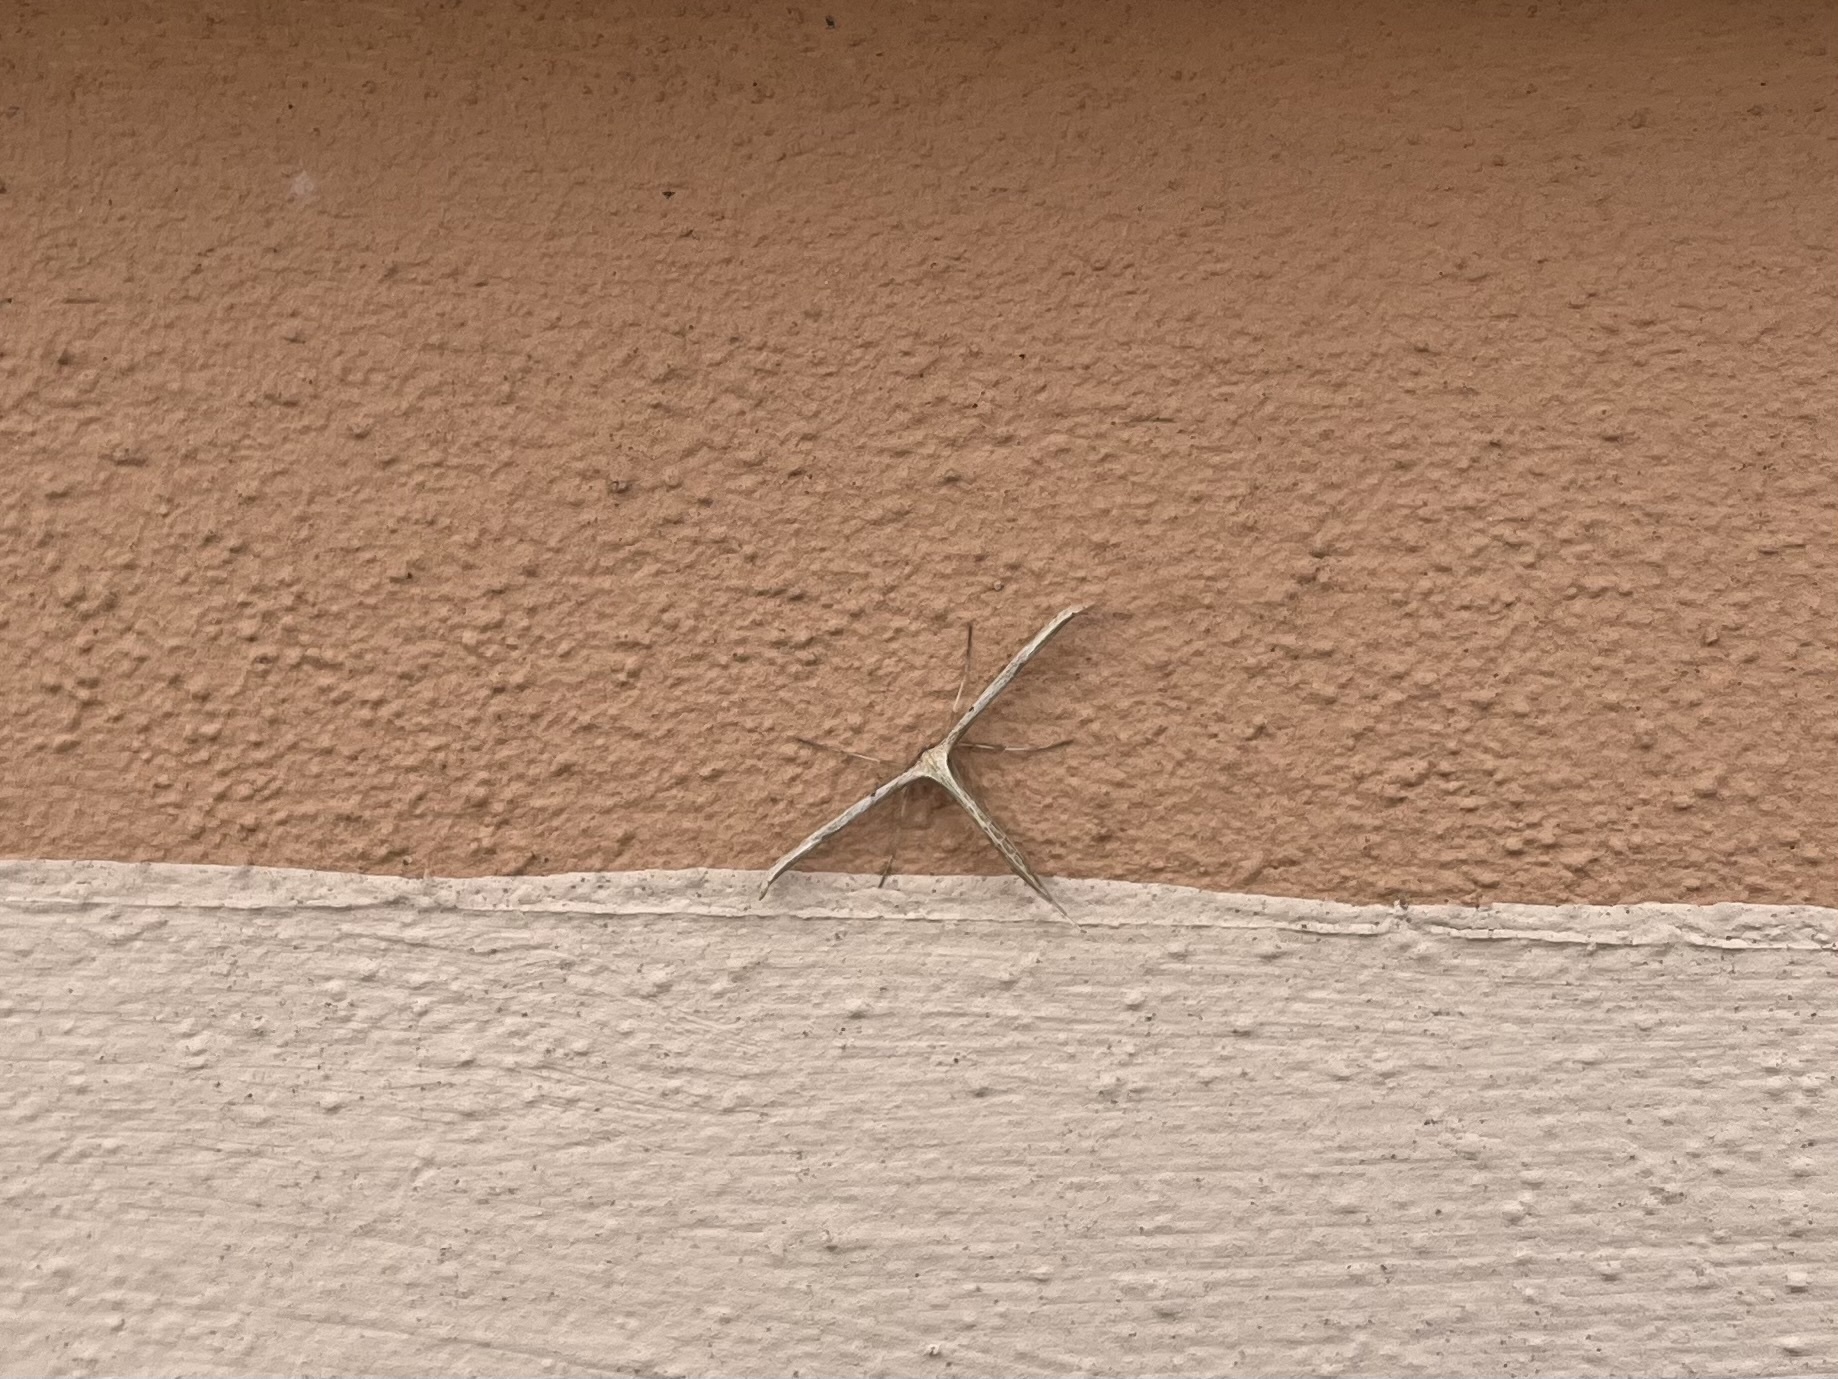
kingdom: Animalia
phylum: Arthropoda
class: Insecta
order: Lepidoptera
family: Pterophoridae
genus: Emmelina
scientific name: Emmelina monodactyla
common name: Common plume
